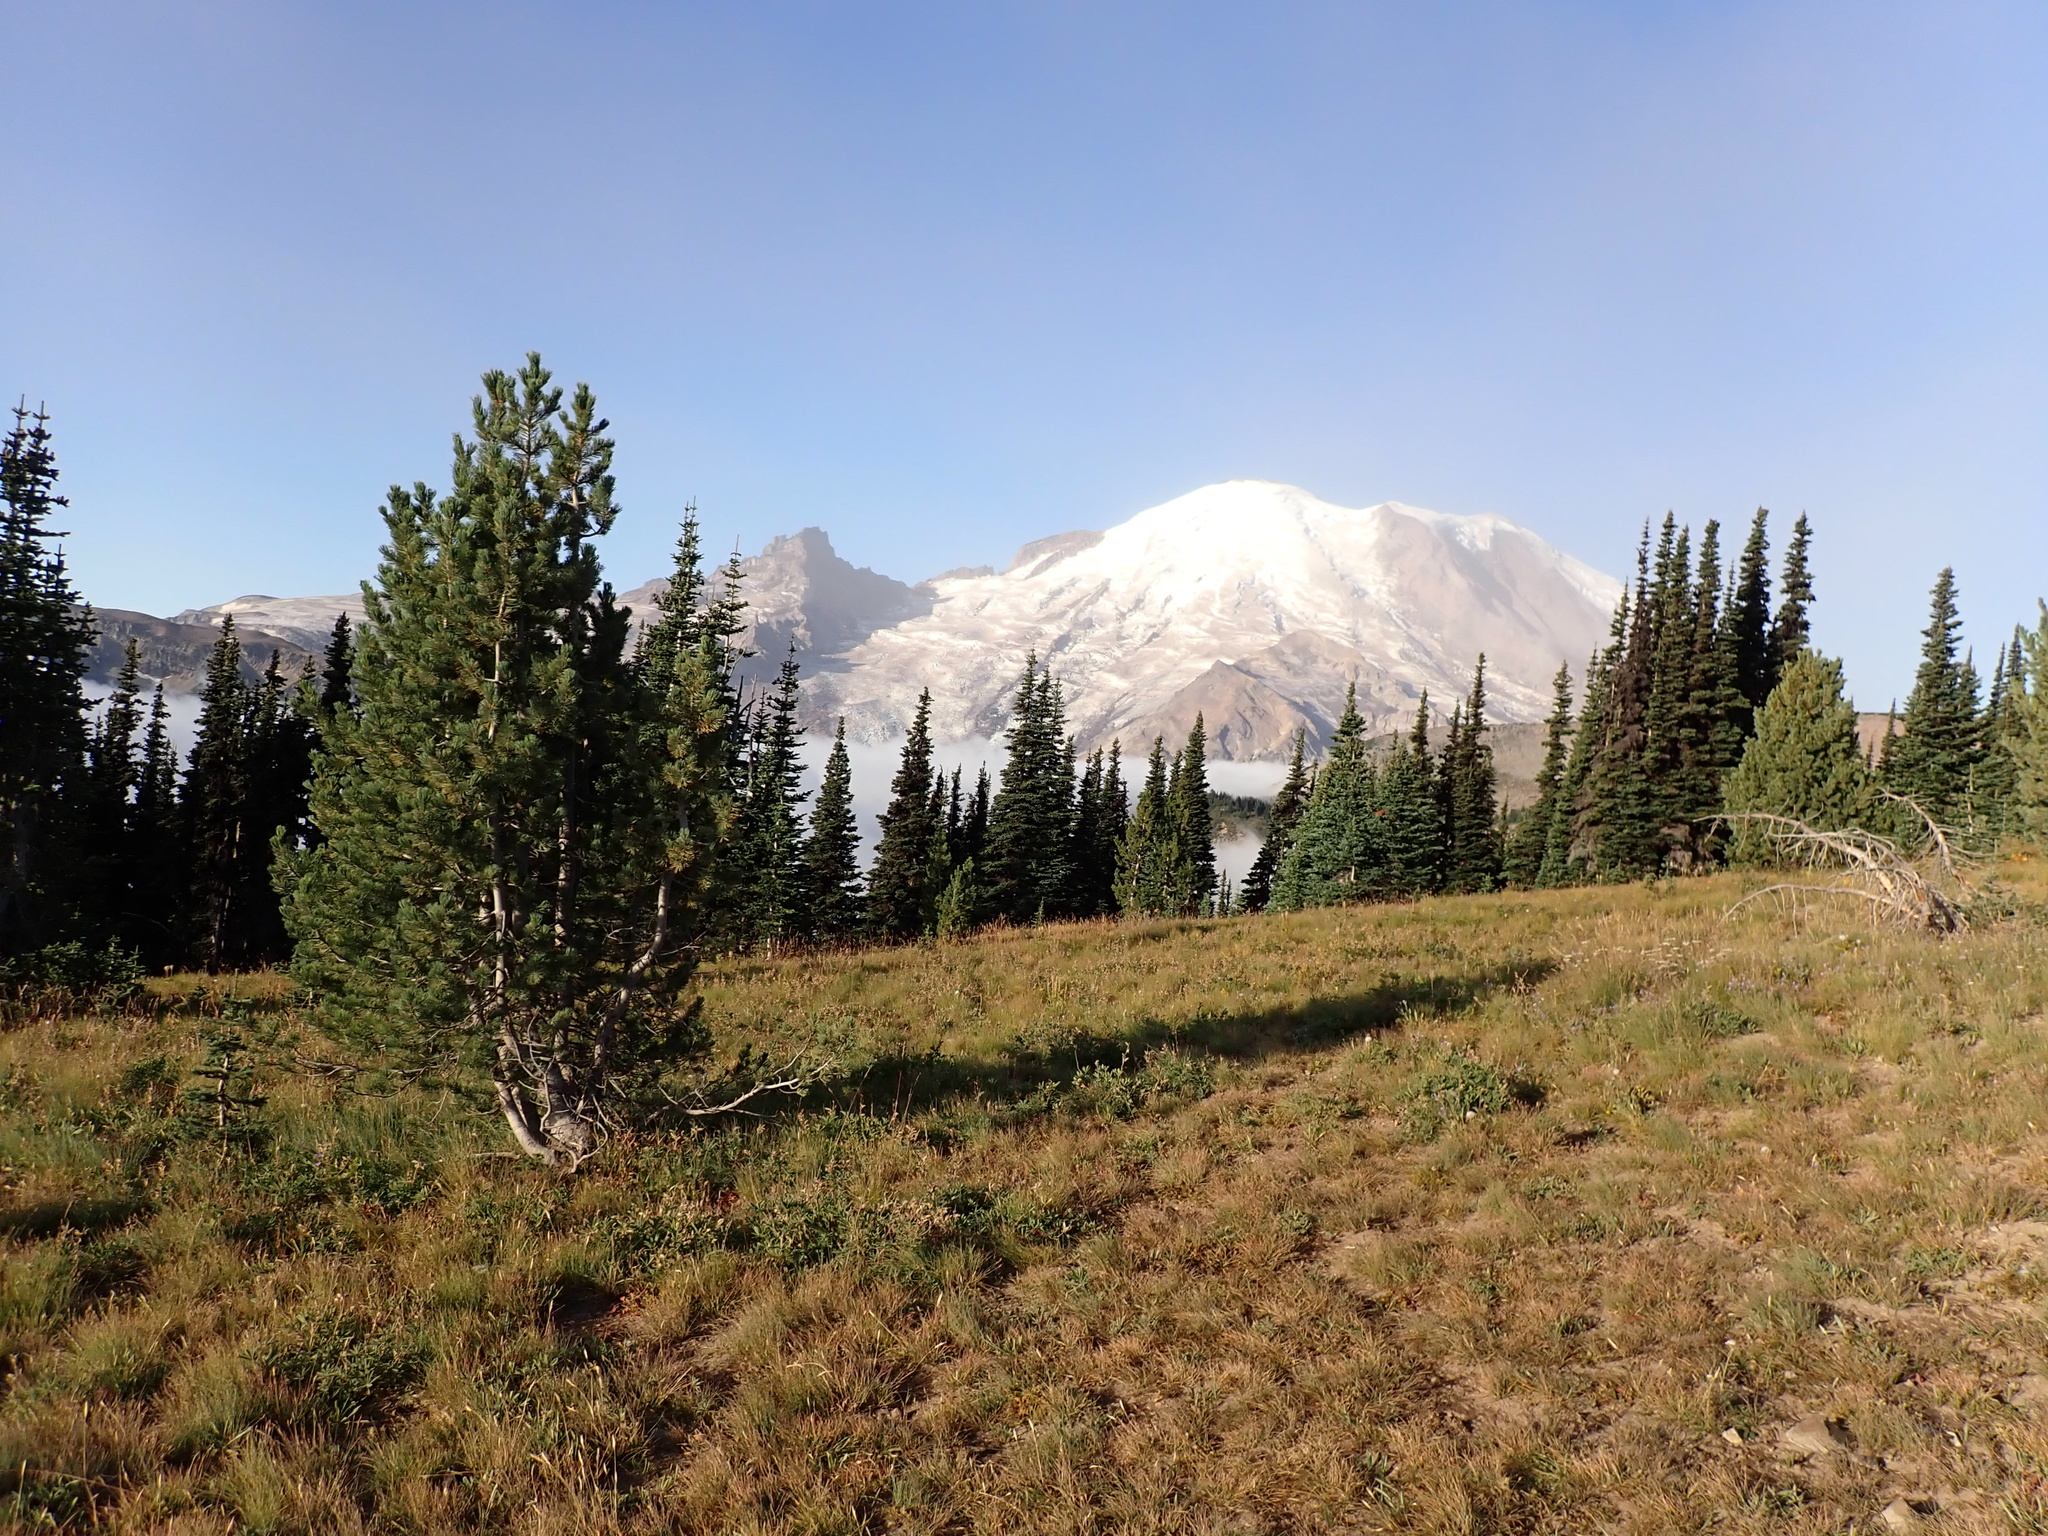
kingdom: Plantae
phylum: Tracheophyta
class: Pinopsida
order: Pinales
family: Pinaceae
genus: Pinus
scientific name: Pinus albicaulis
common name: Whitebark pine
